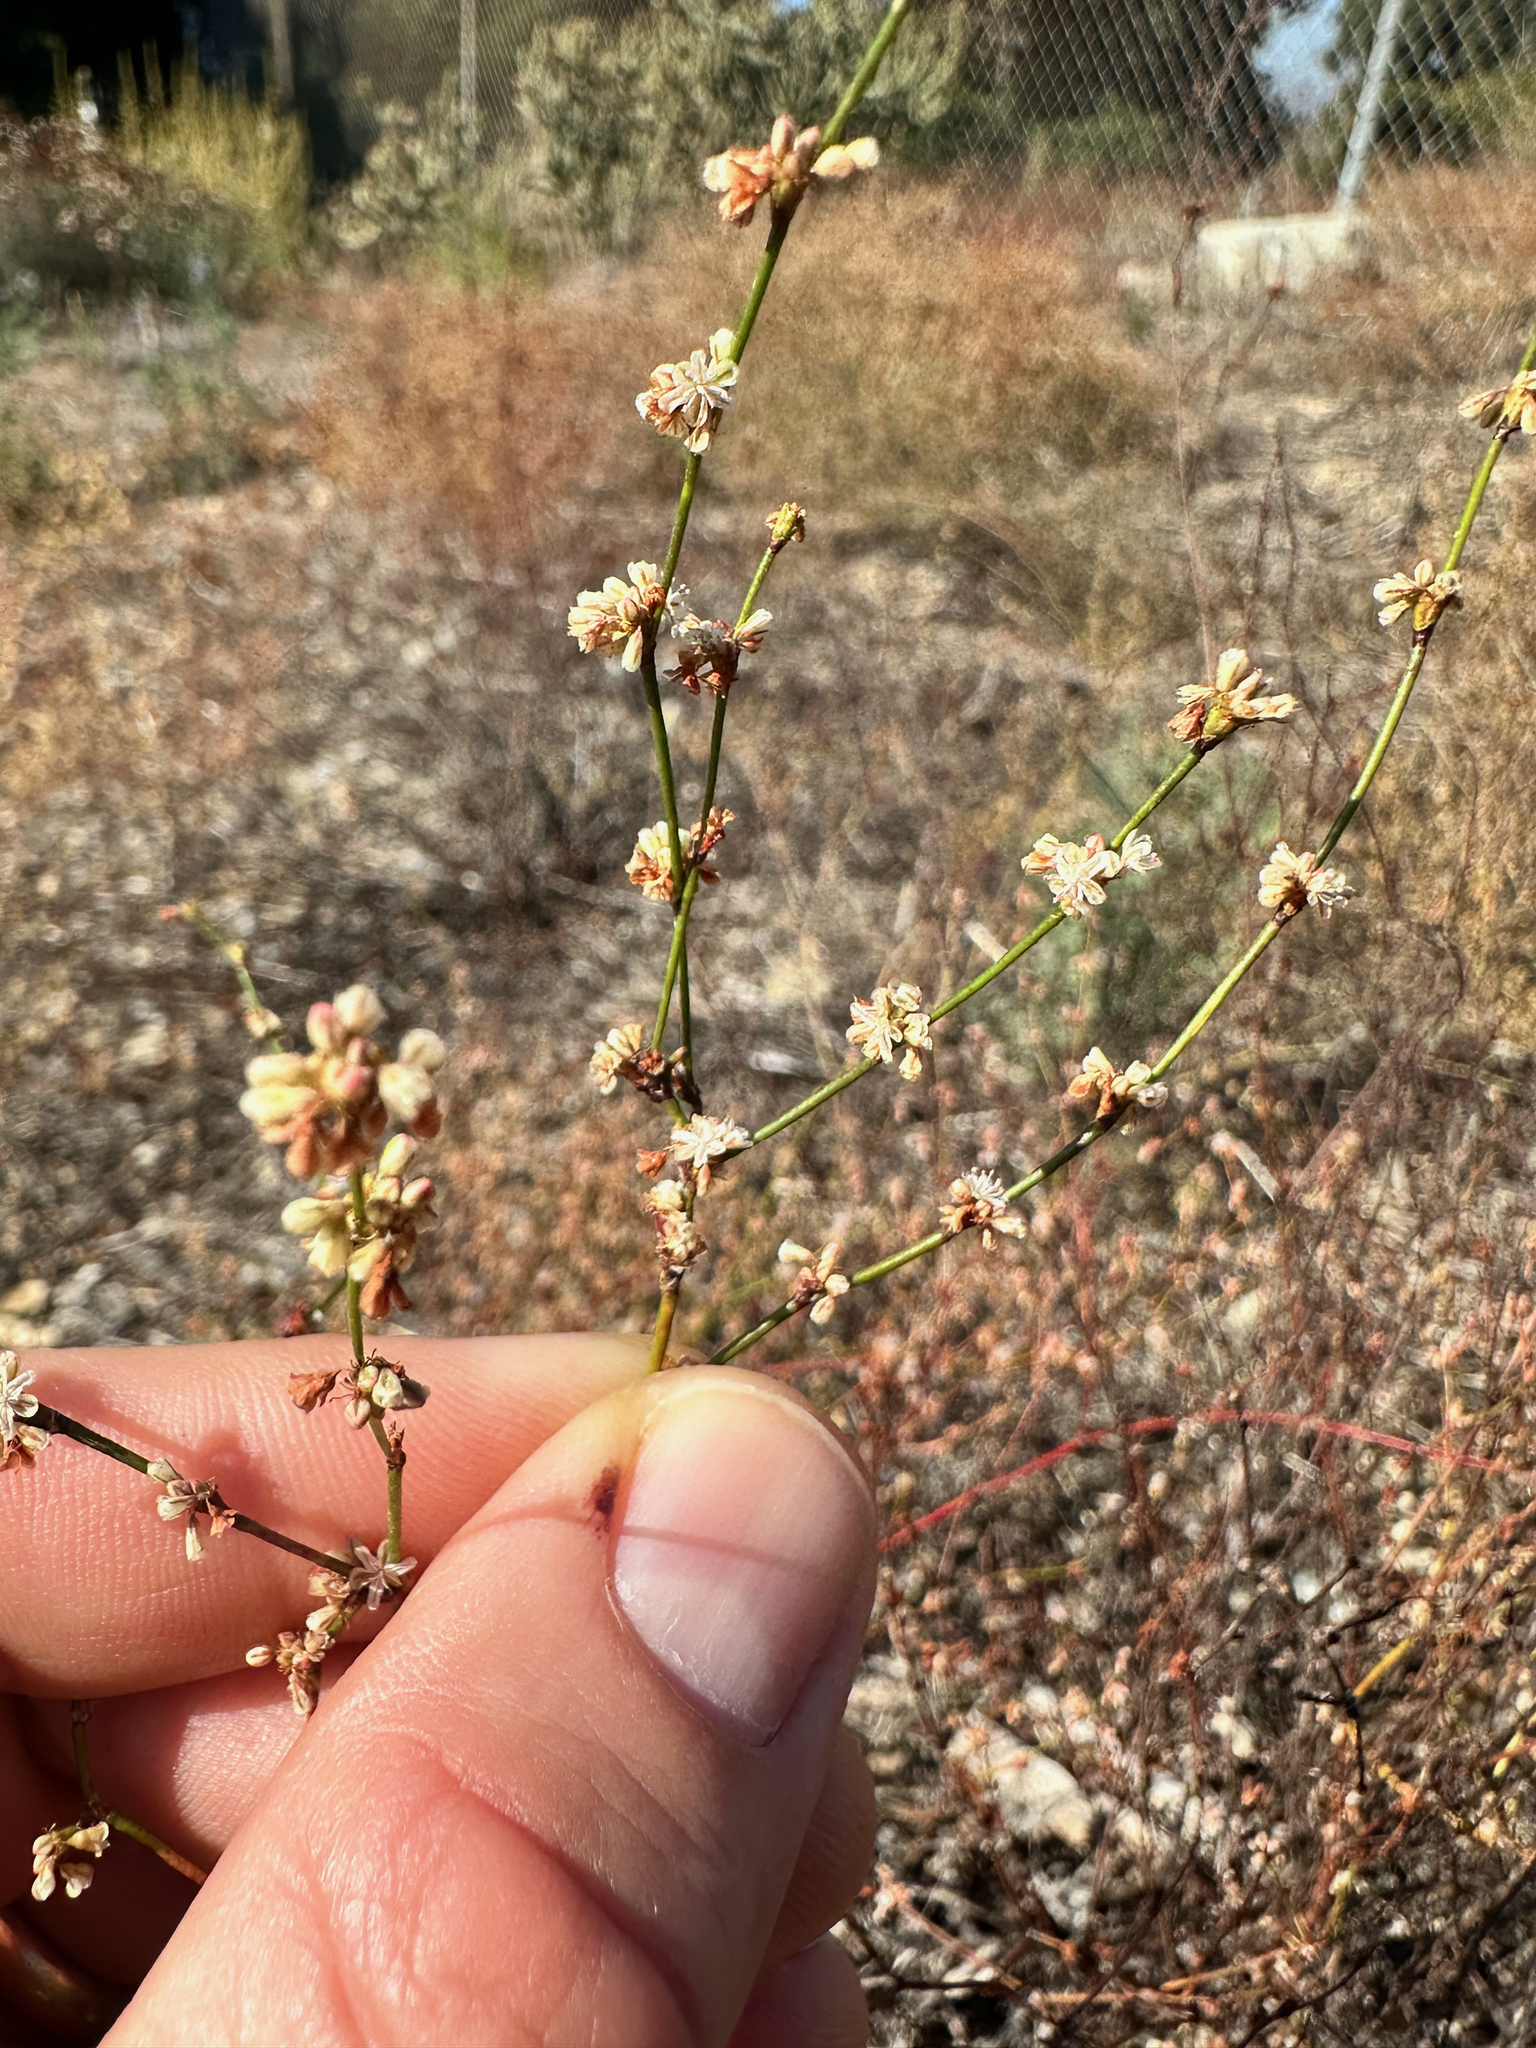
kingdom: Plantae
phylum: Tracheophyta
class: Magnoliopsida
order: Caryophyllales
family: Polygonaceae
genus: Eriogonum
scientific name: Eriogonum gracile
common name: Slender woolly buckwheat
